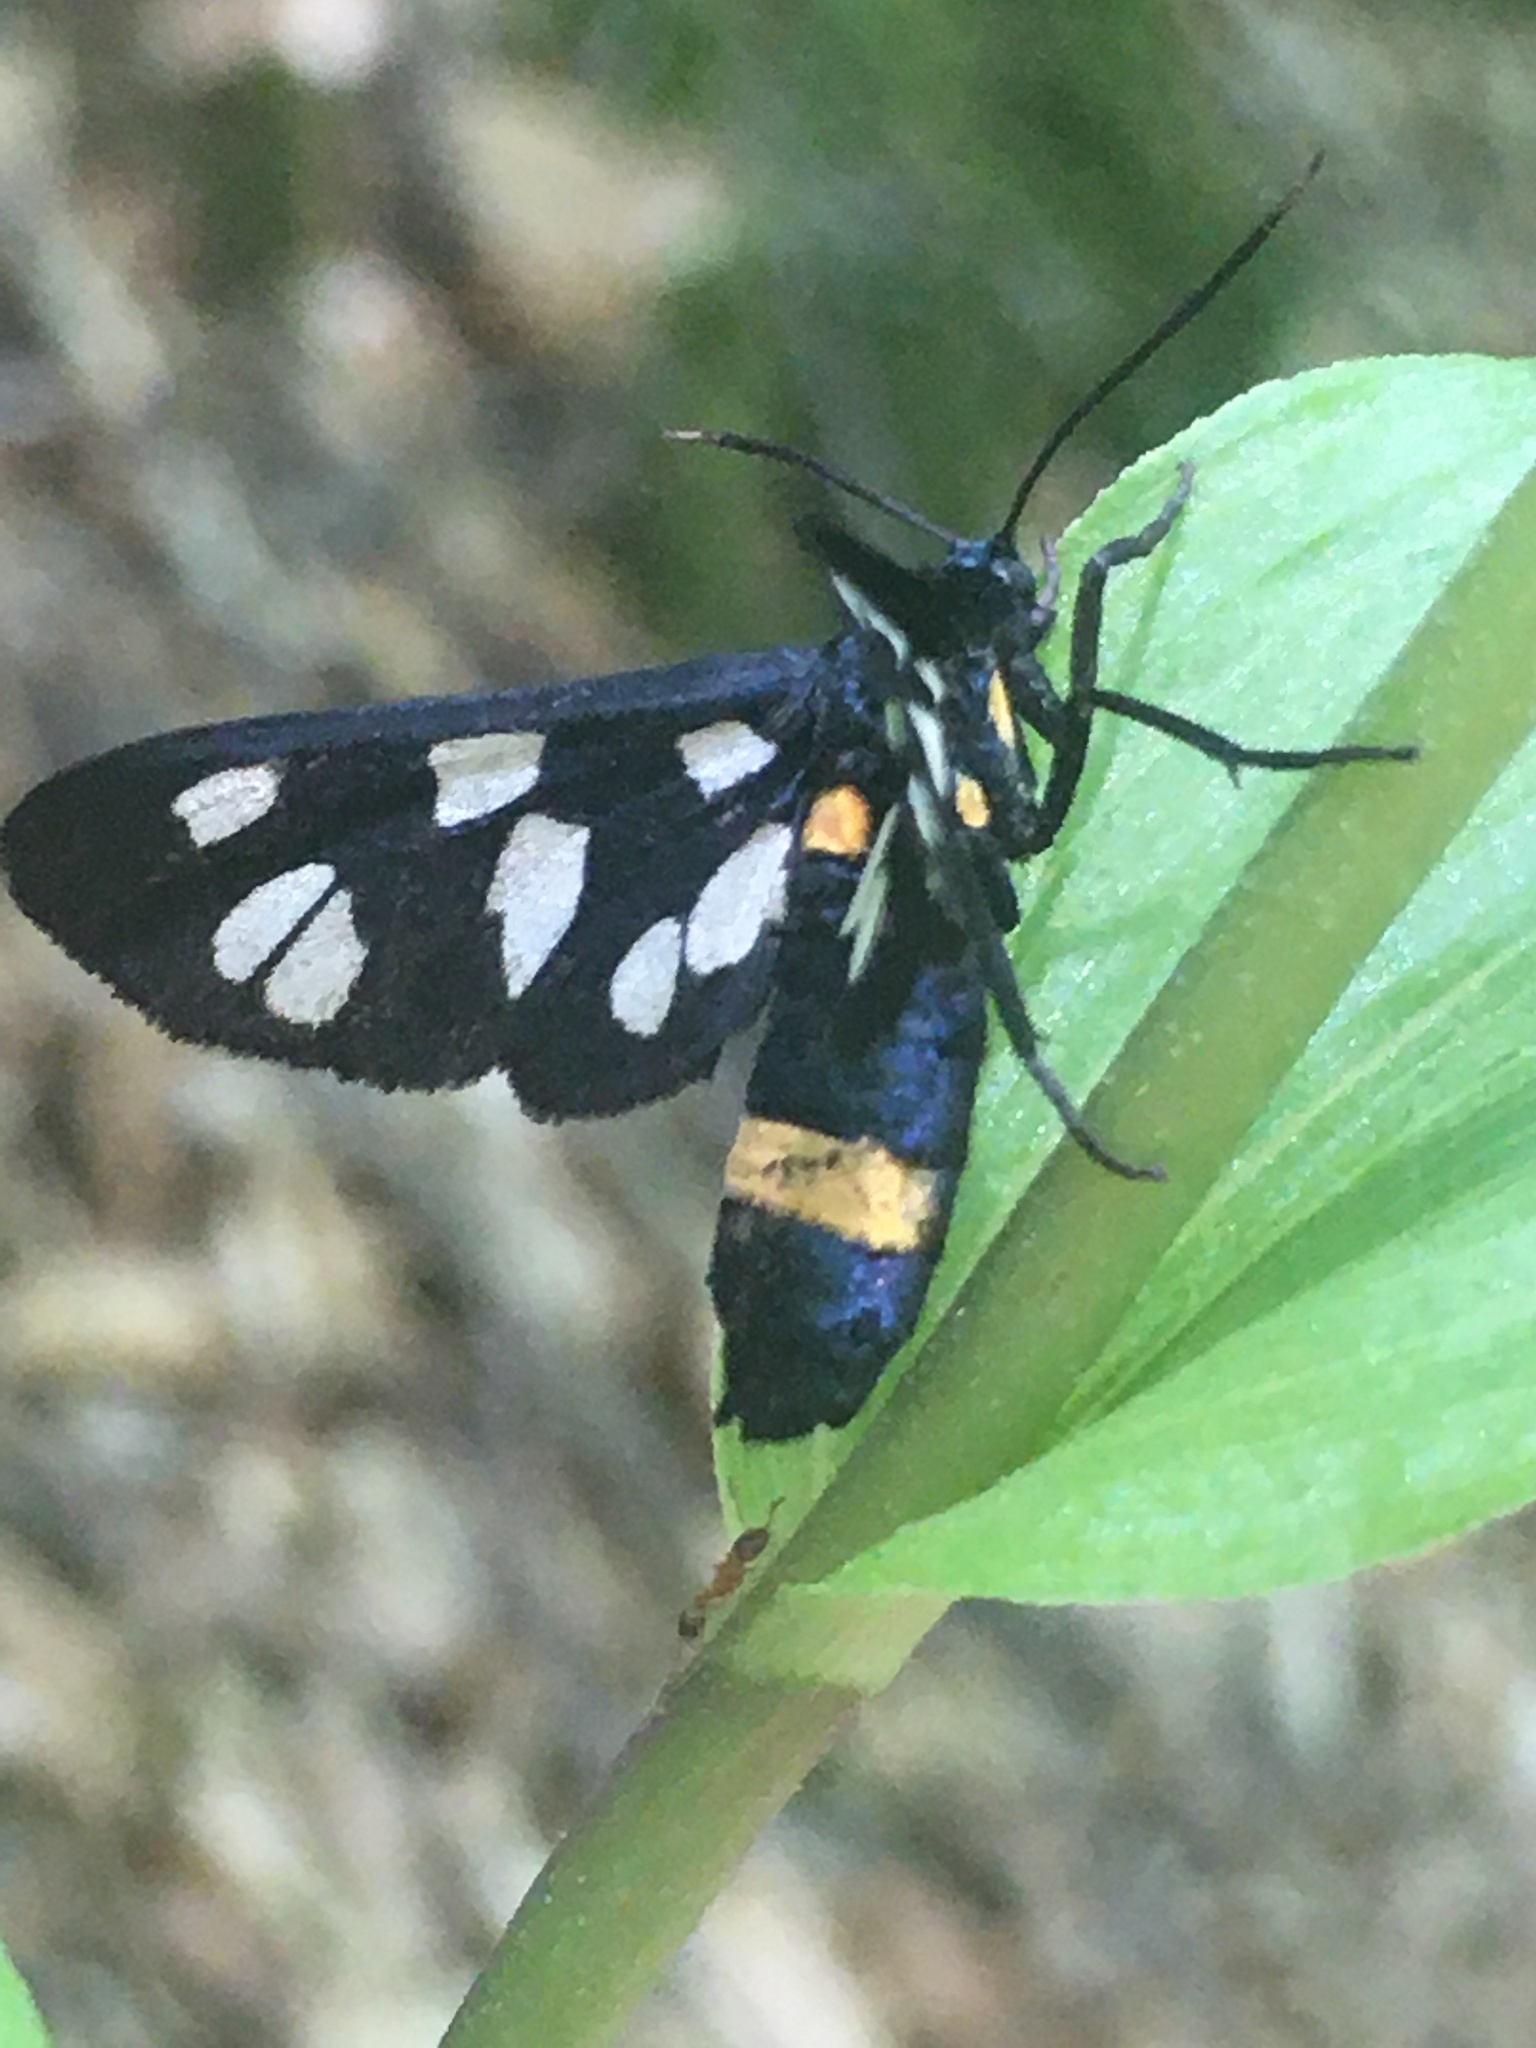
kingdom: Animalia
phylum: Arthropoda
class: Insecta
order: Lepidoptera
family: Erebidae
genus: Amata
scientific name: Amata nigricornis
